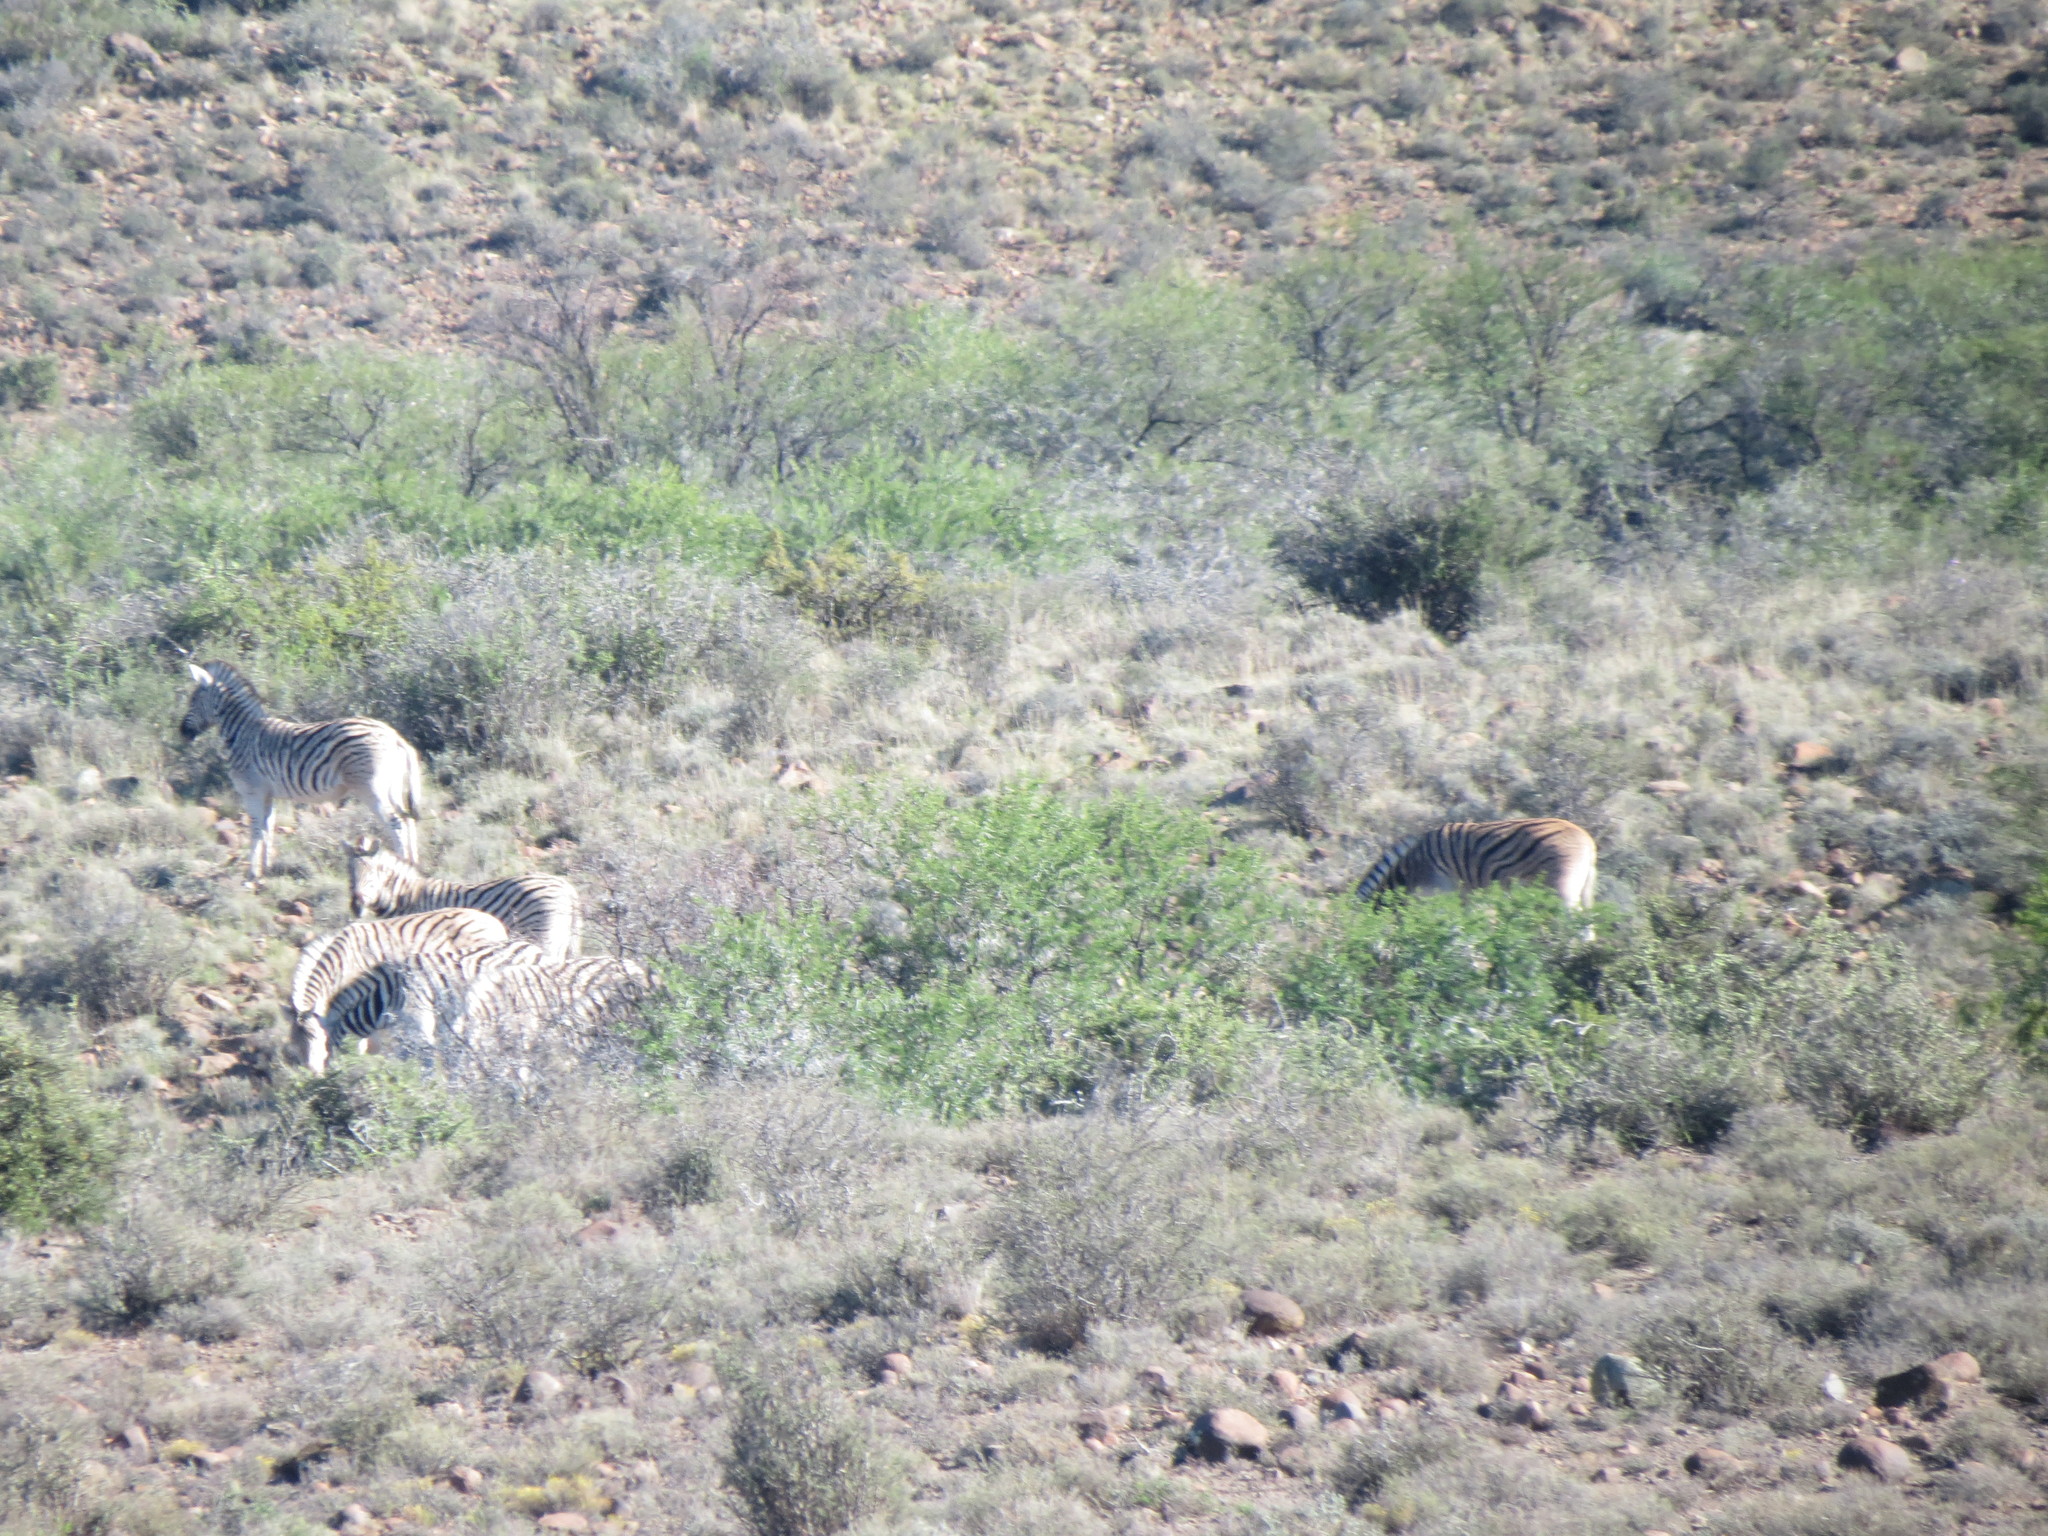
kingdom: Animalia
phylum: Chordata
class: Mammalia
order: Perissodactyla
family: Equidae
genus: Equus
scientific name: Equus quagga
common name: Plains zebra
